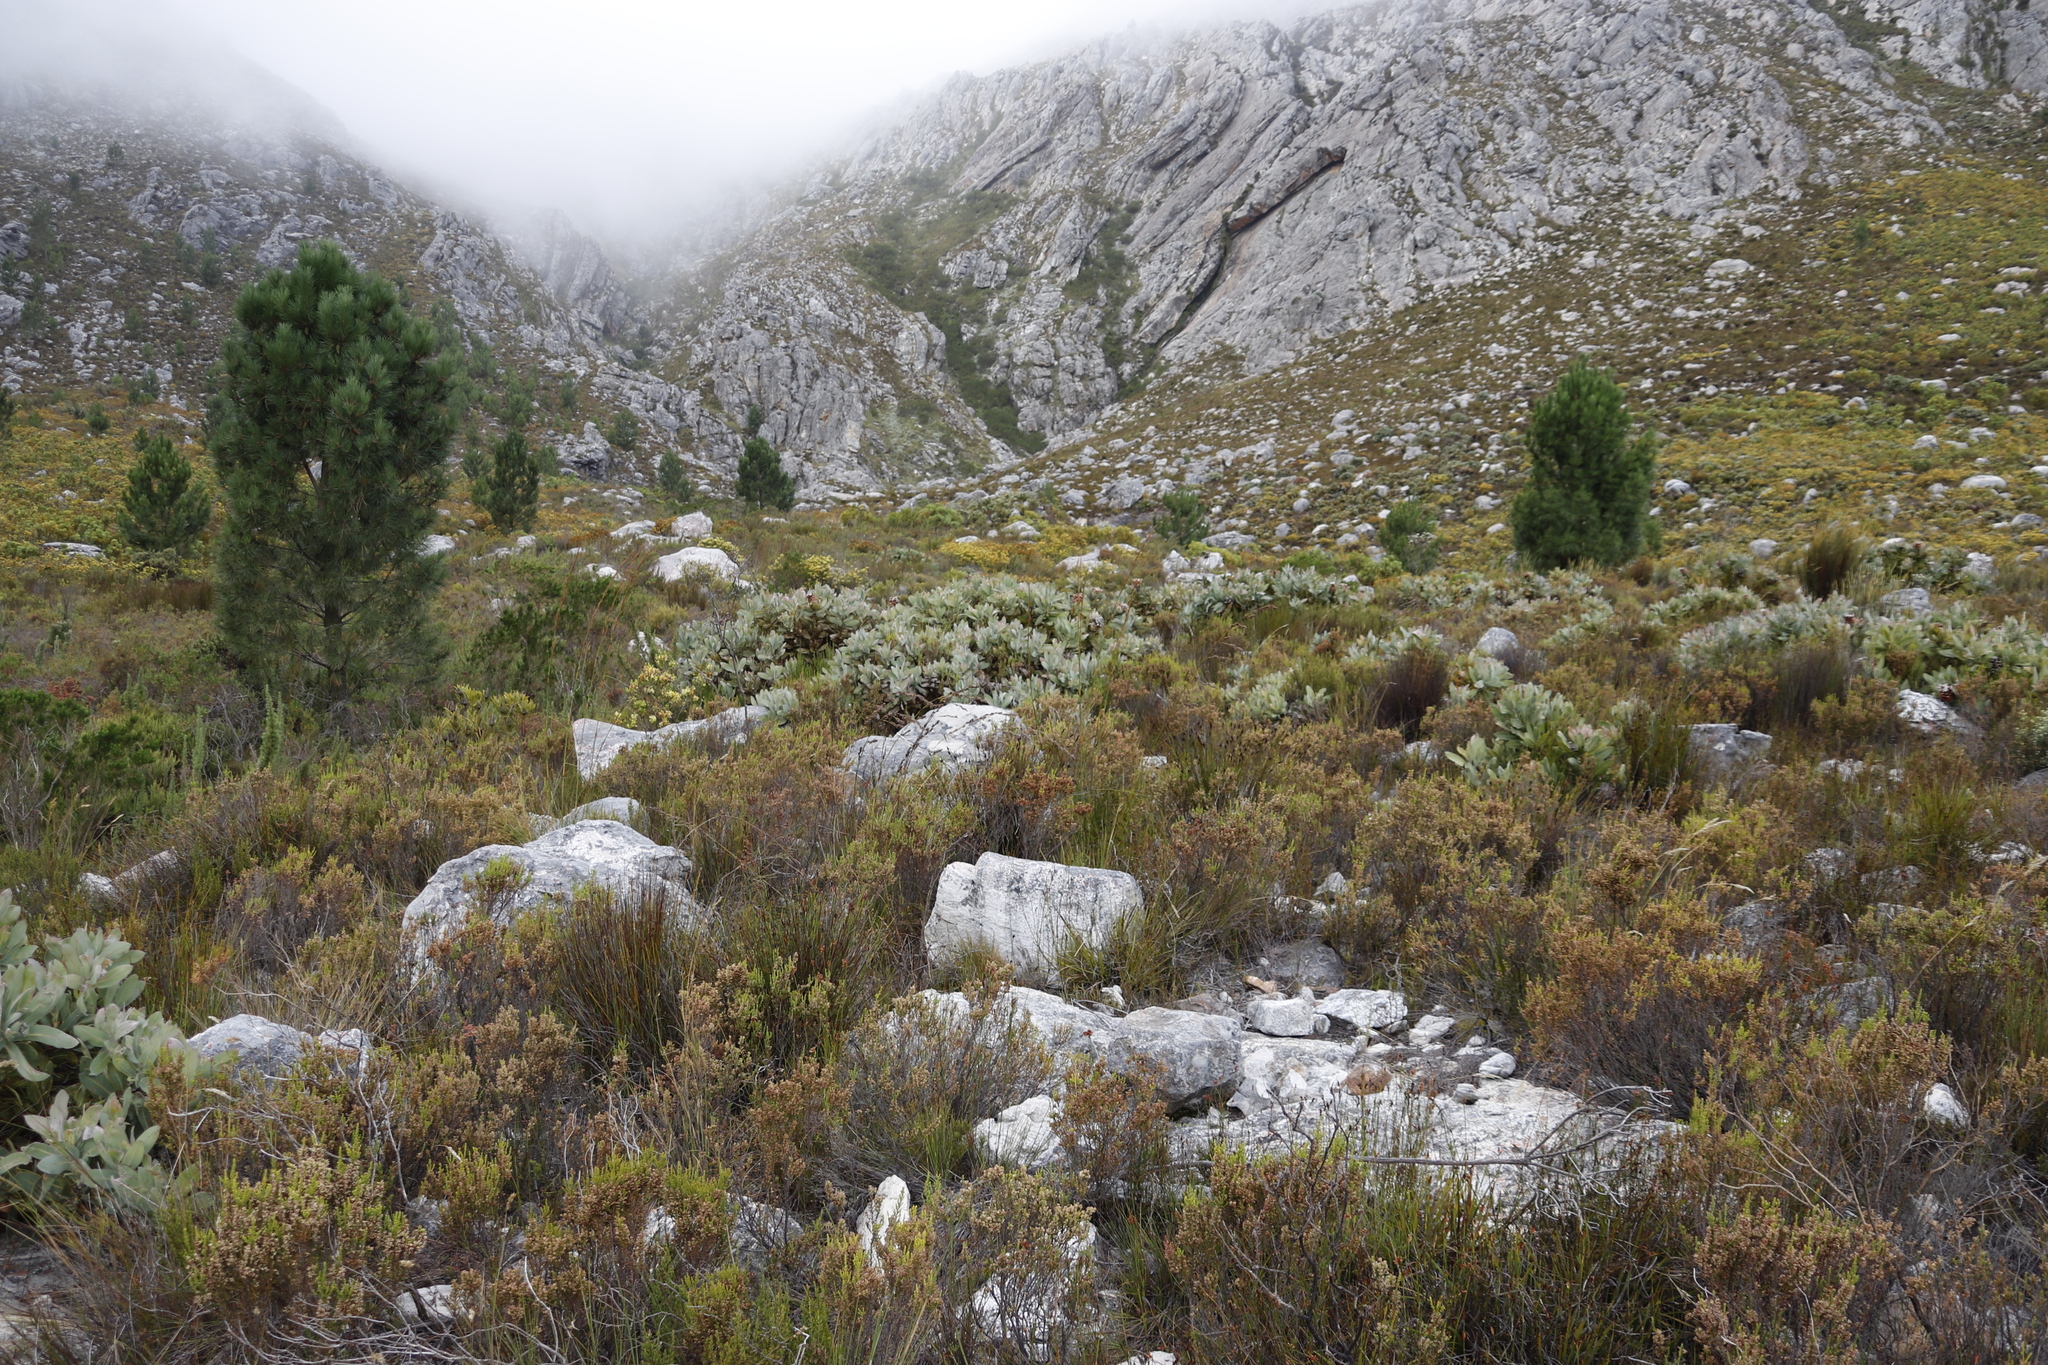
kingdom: Plantae
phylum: Tracheophyta
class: Magnoliopsida
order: Proteales
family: Proteaceae
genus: Protea
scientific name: Protea magnifica
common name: Bearded sugarbush
